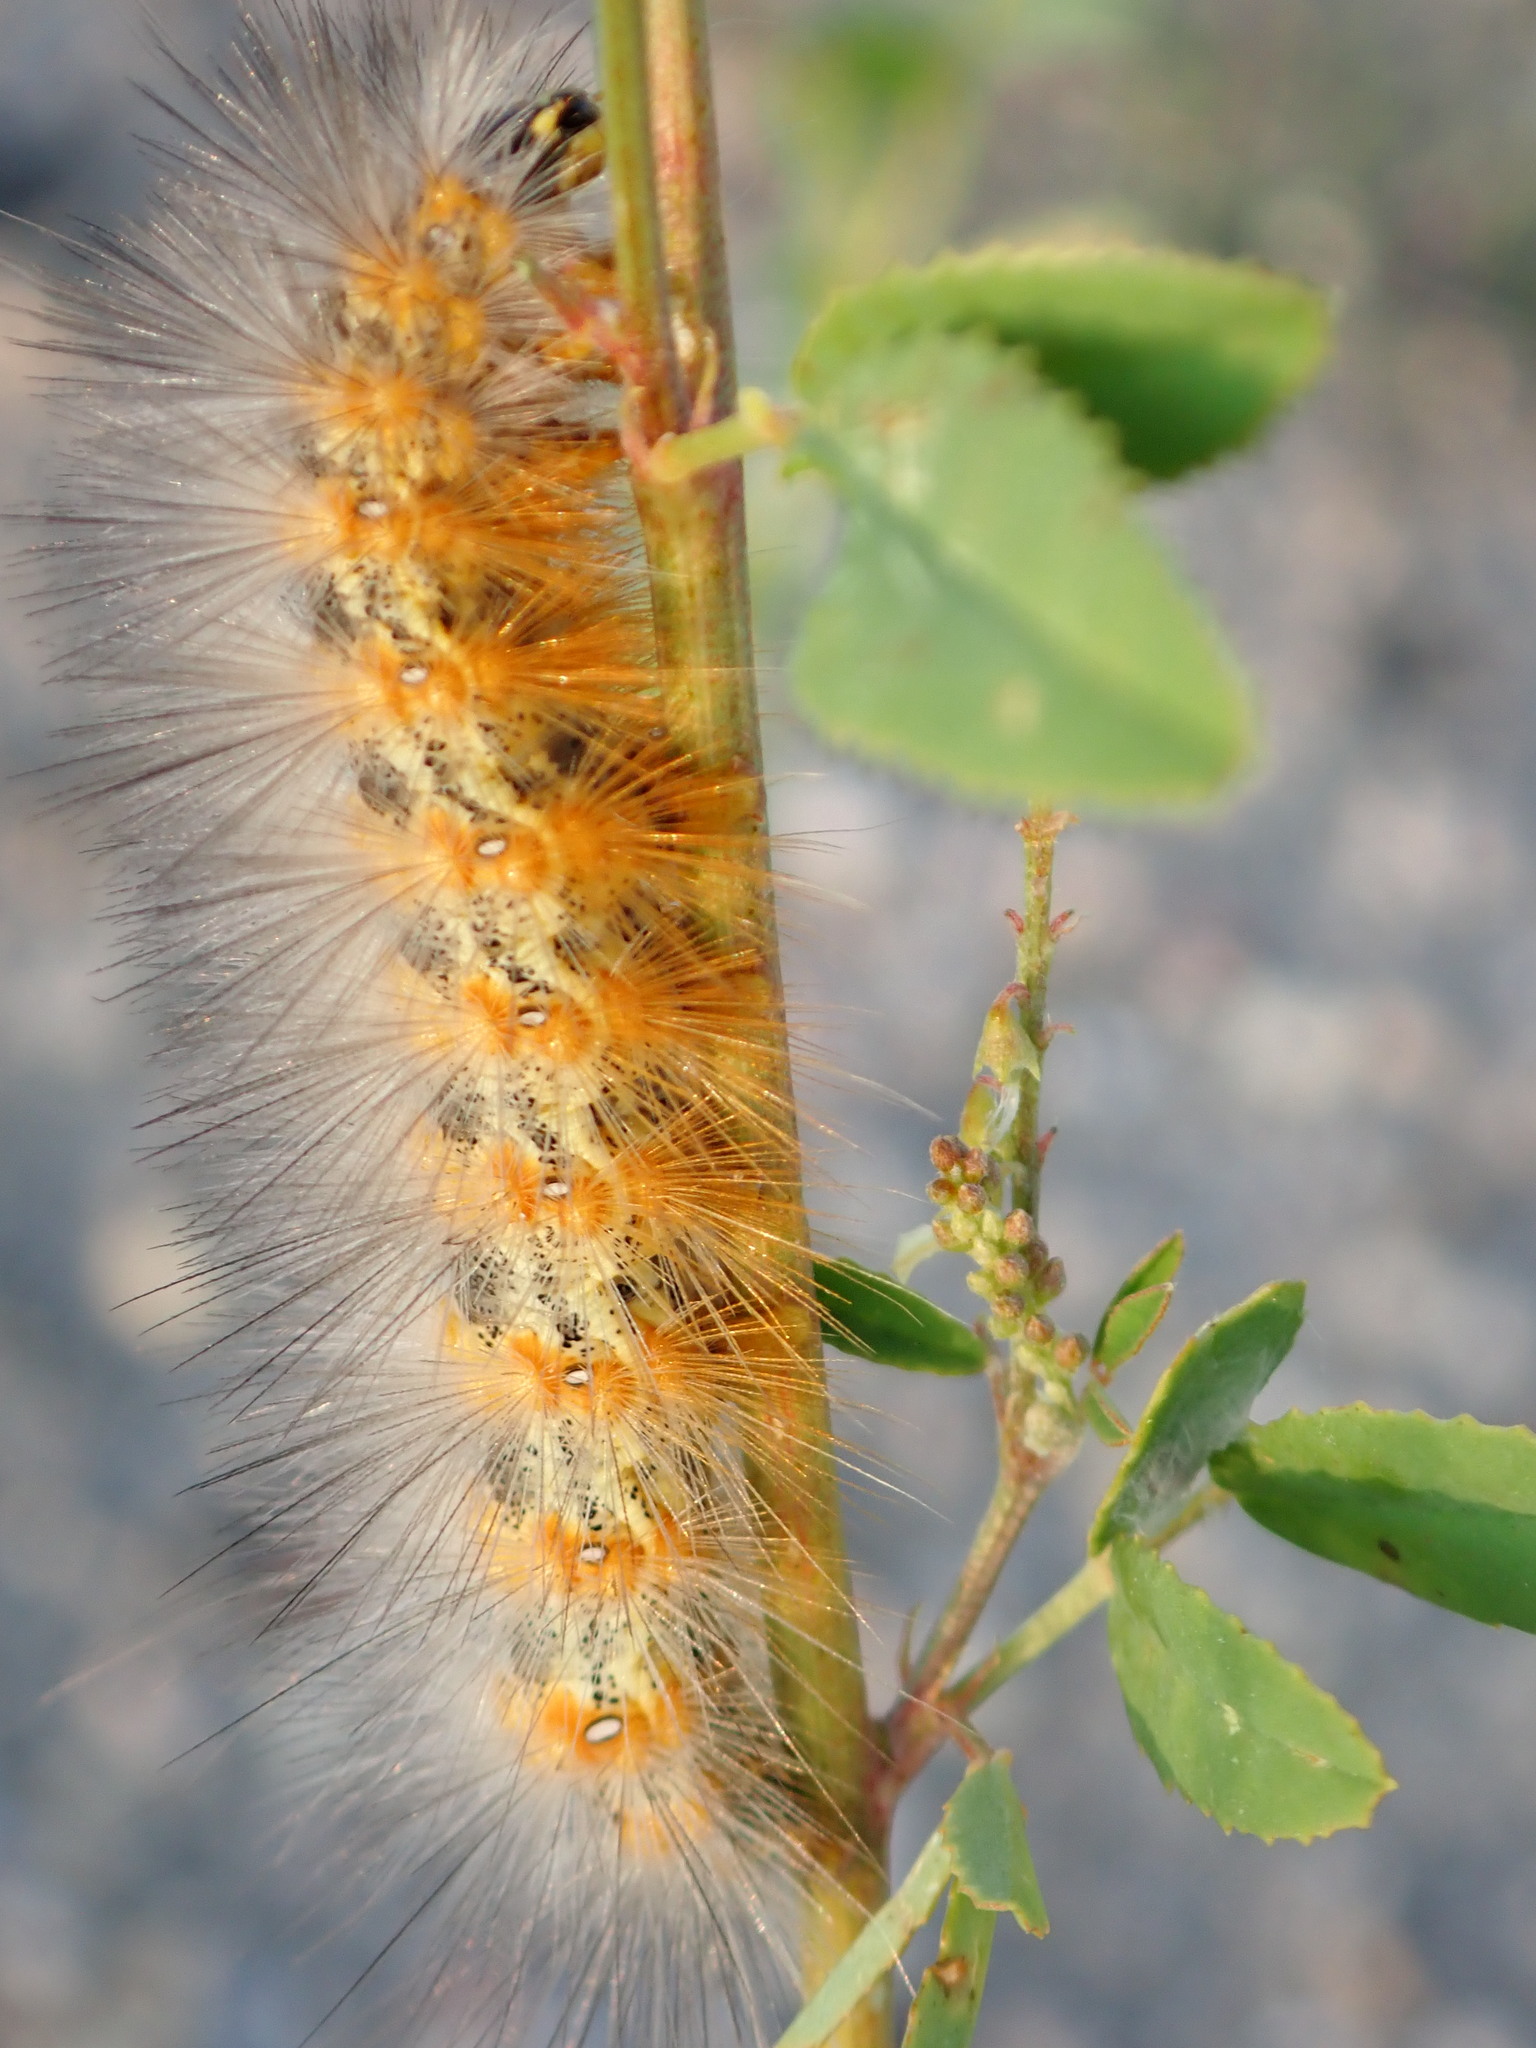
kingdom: Animalia
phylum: Arthropoda
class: Insecta
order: Lepidoptera
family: Erebidae
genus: Estigmene
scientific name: Estigmene acrea
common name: Salt marsh moth
